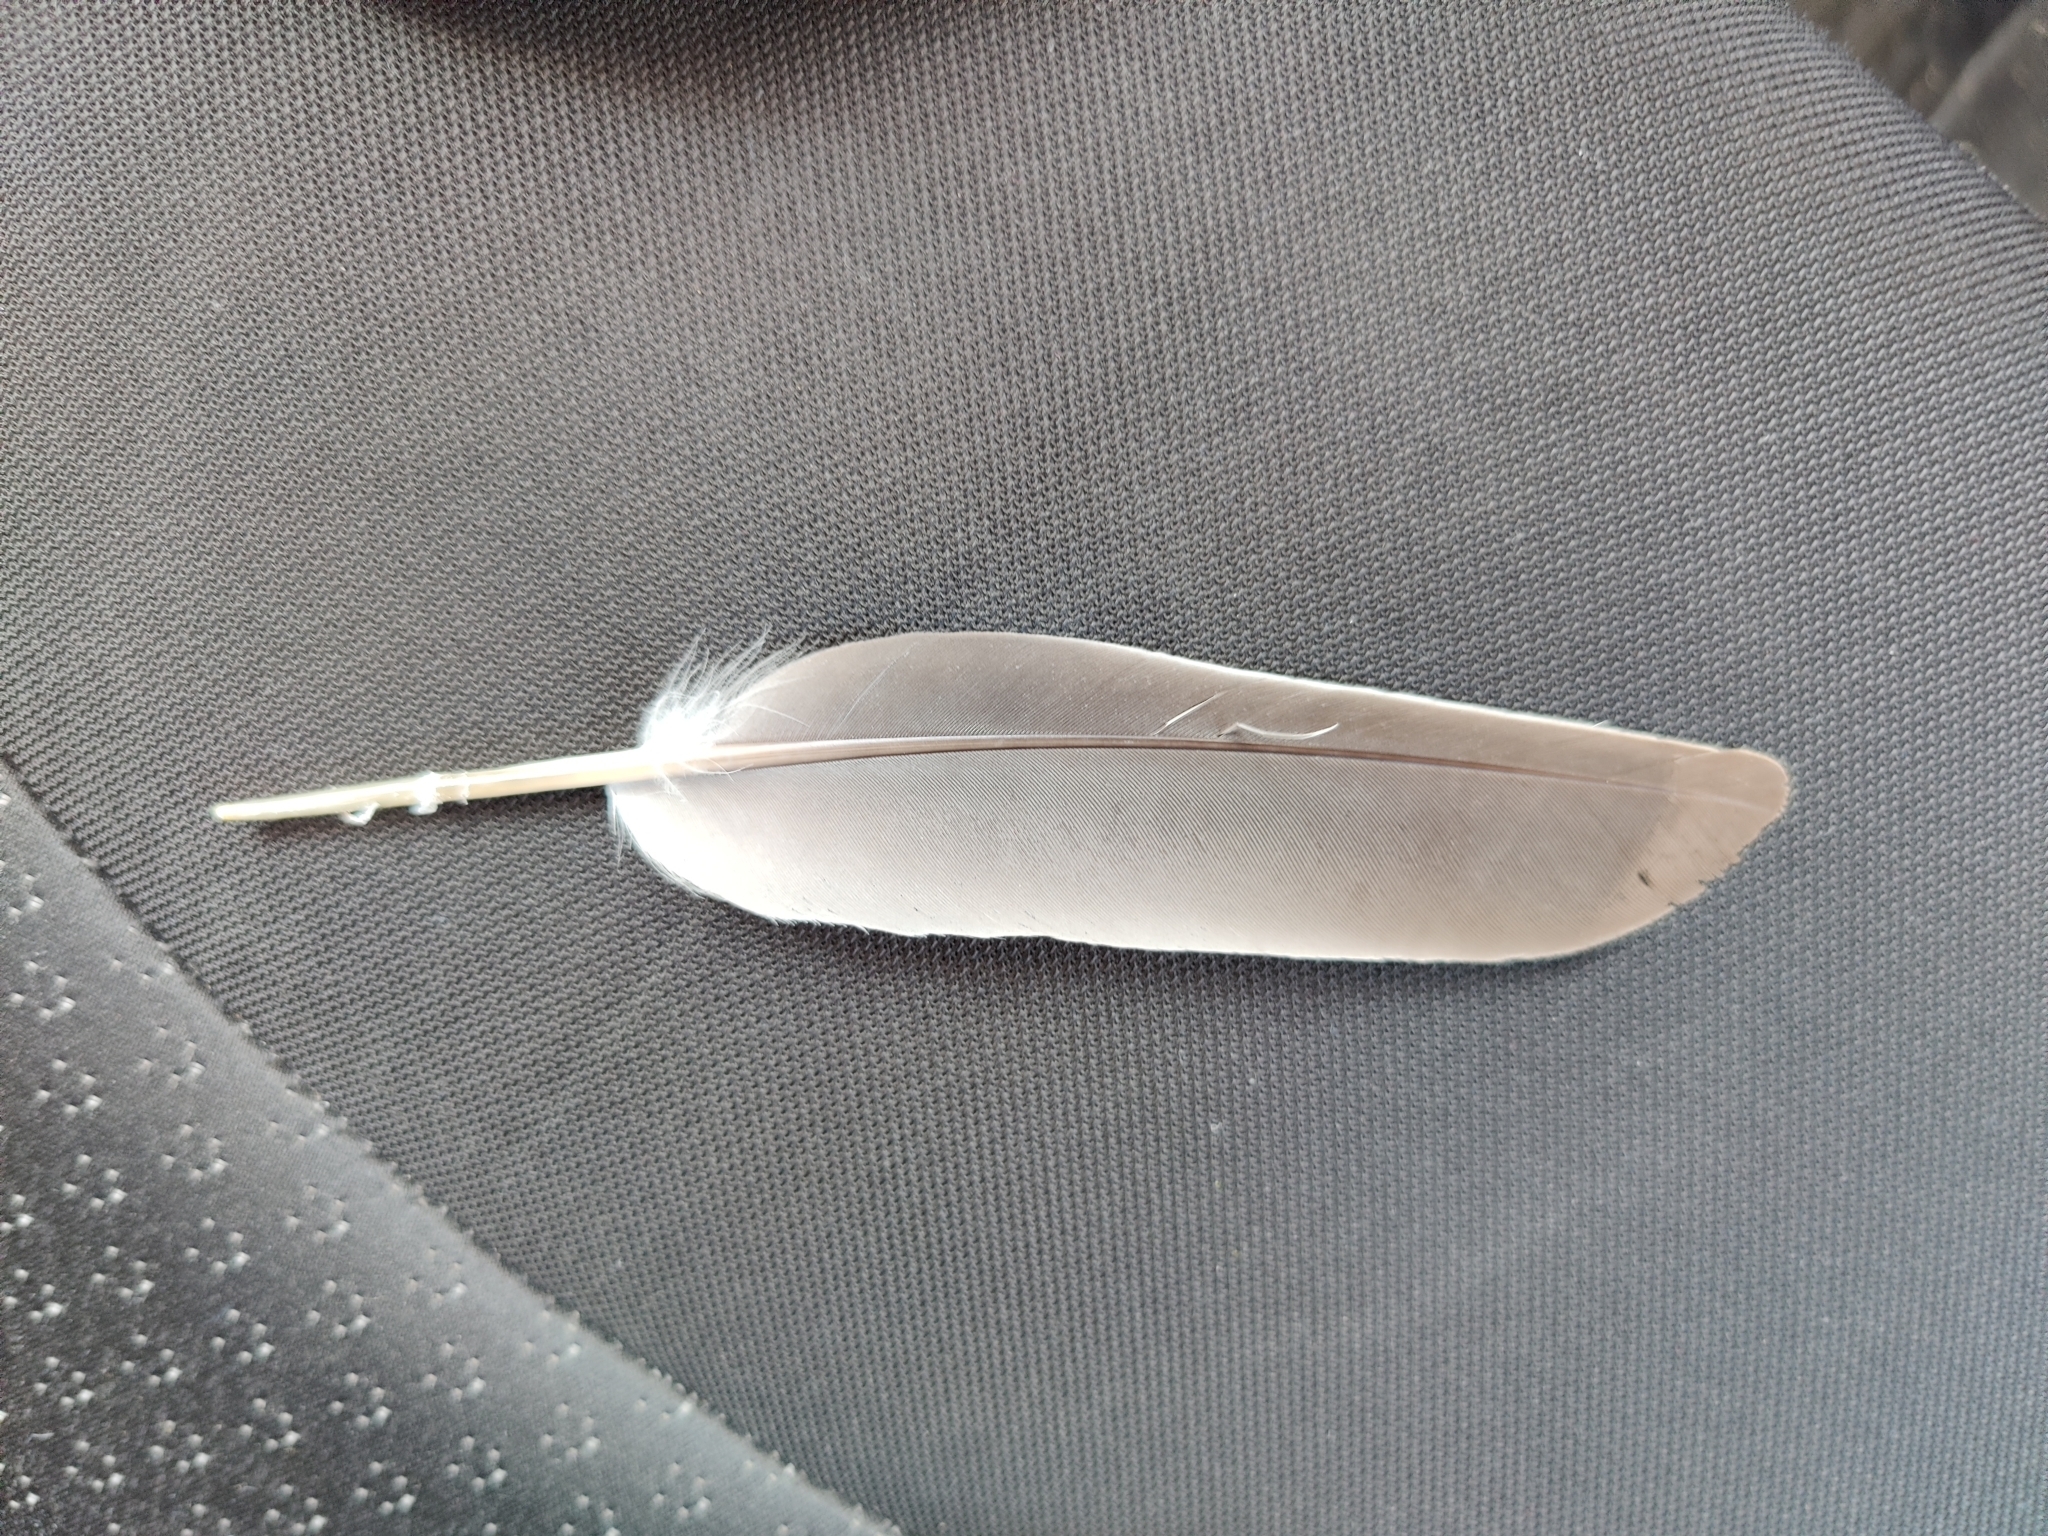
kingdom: Animalia
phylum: Chordata
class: Aves
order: Columbiformes
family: Columbidae
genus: Columba
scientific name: Columba palumbus
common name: Common wood pigeon
